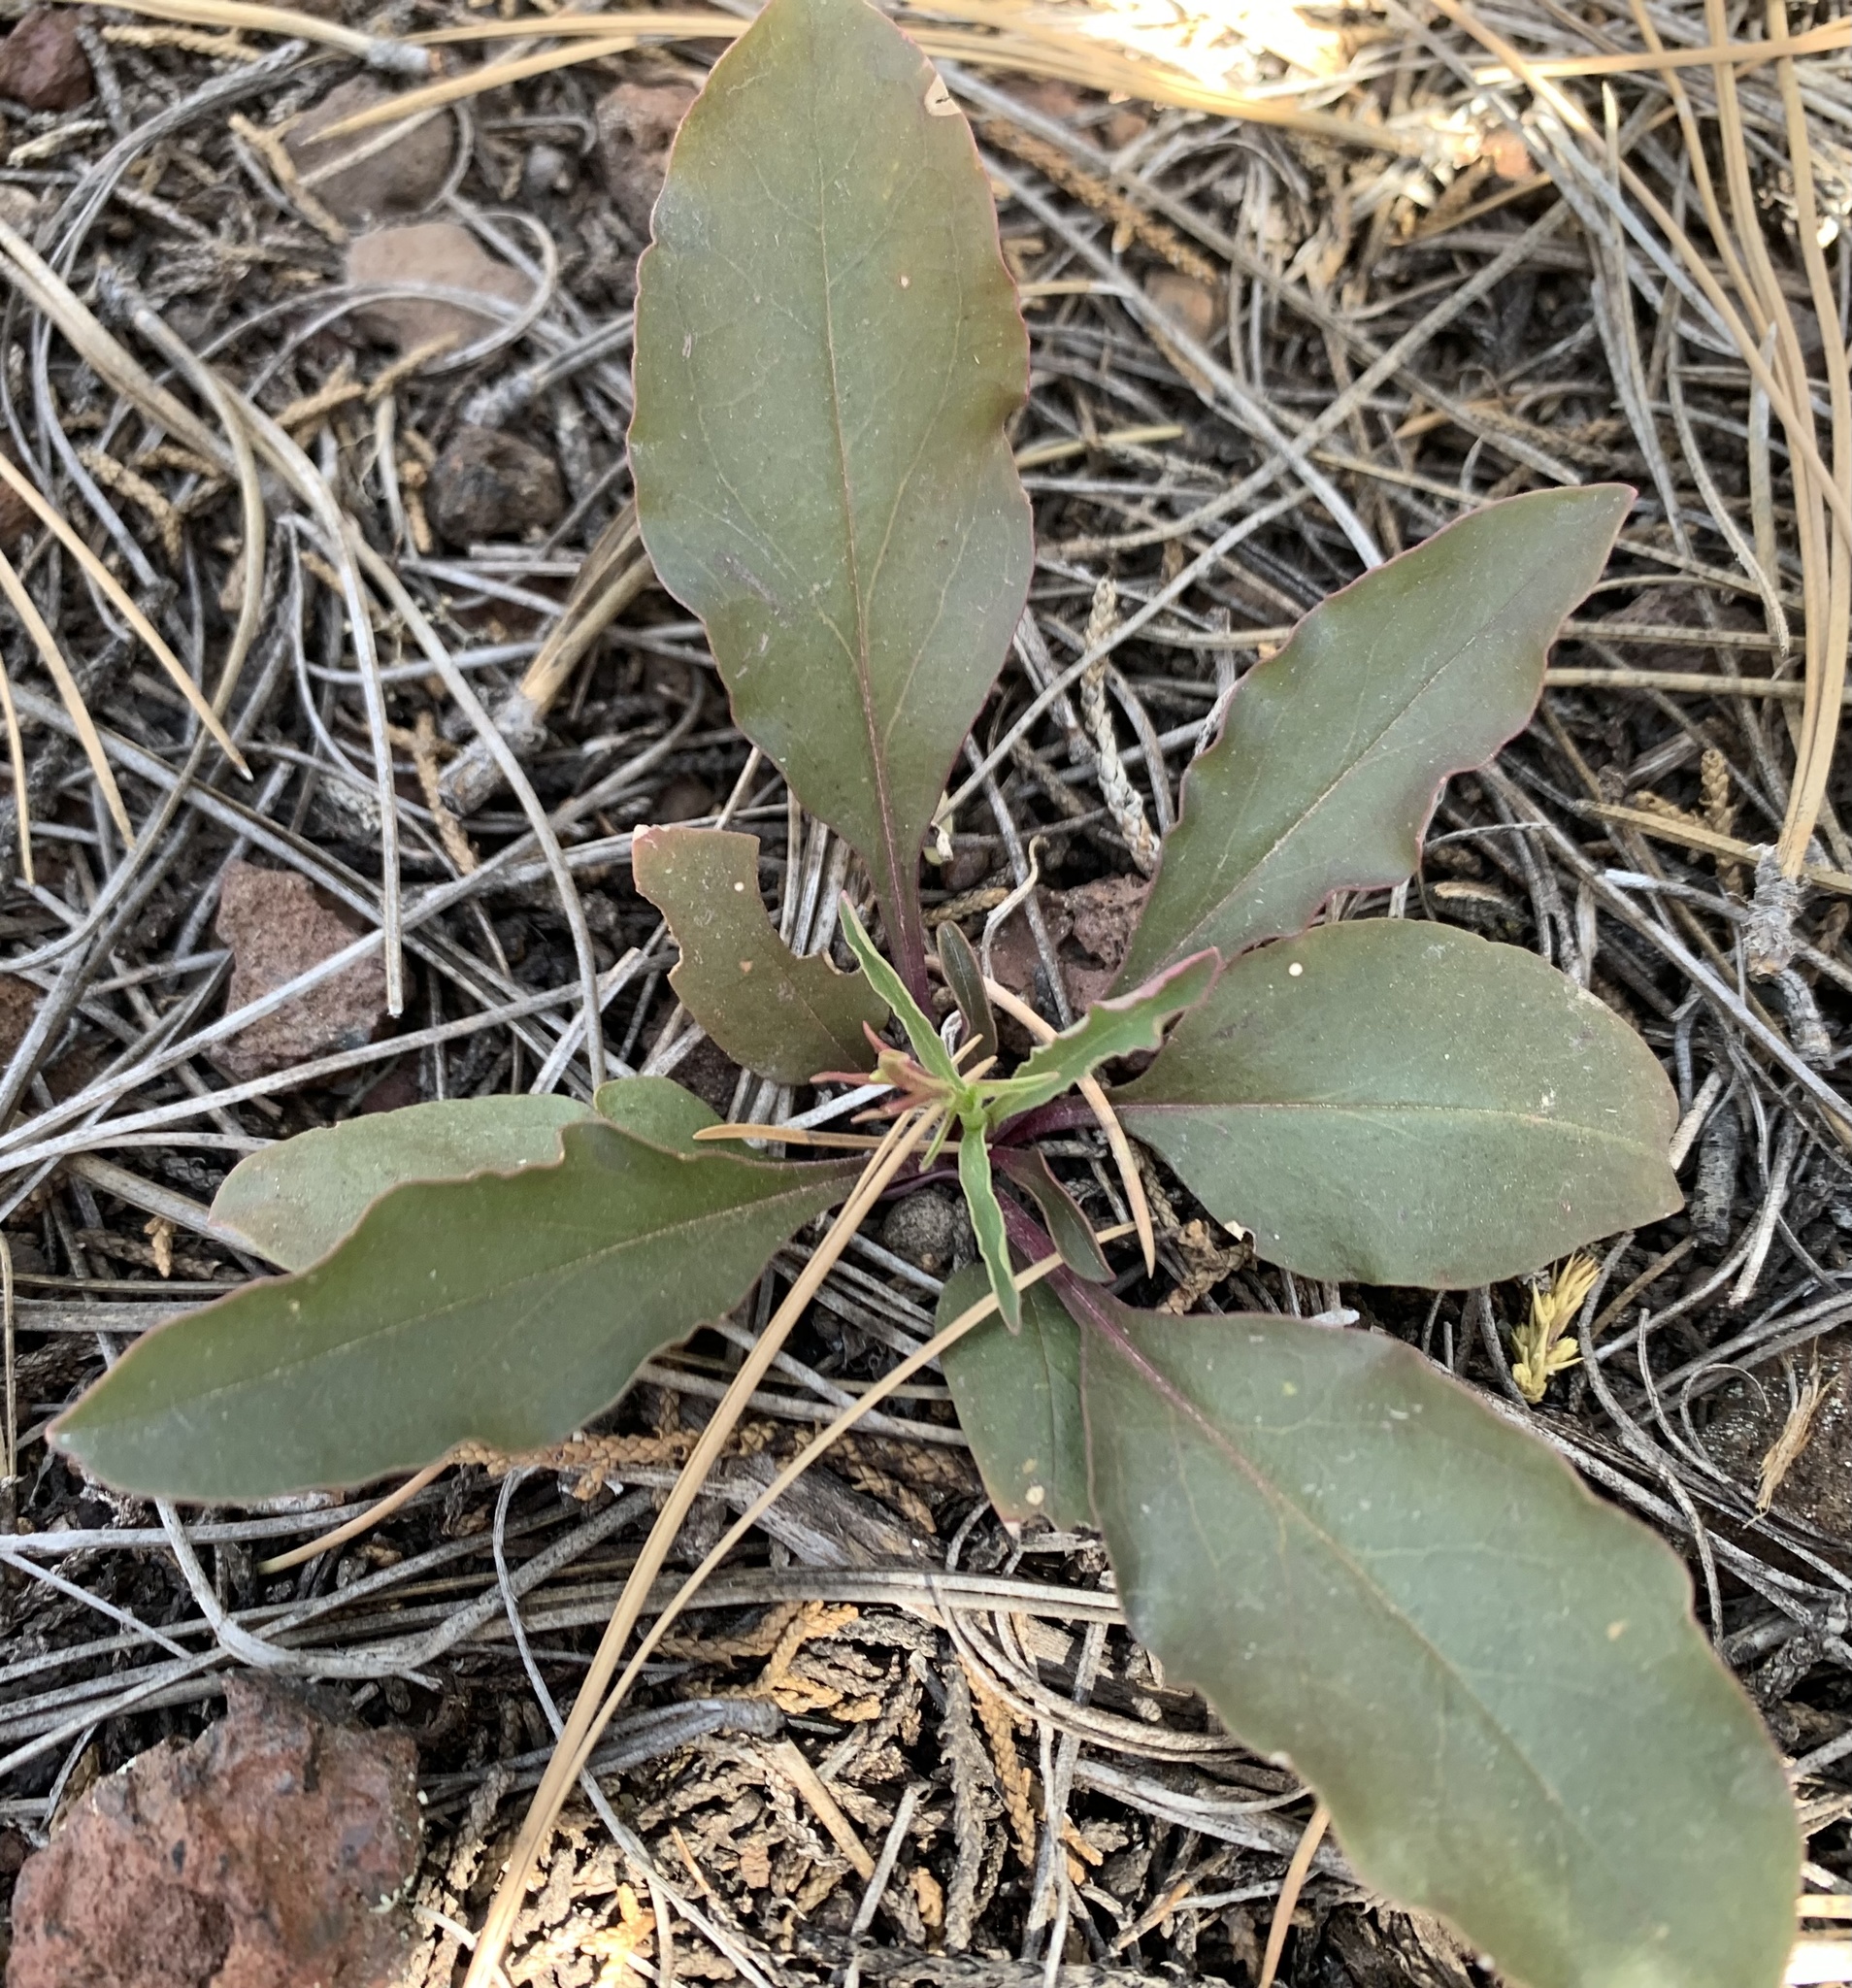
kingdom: Plantae
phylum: Tracheophyta
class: Magnoliopsida
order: Lamiales
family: Plantaginaceae
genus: Penstemon
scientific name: Penstemon barbatus
